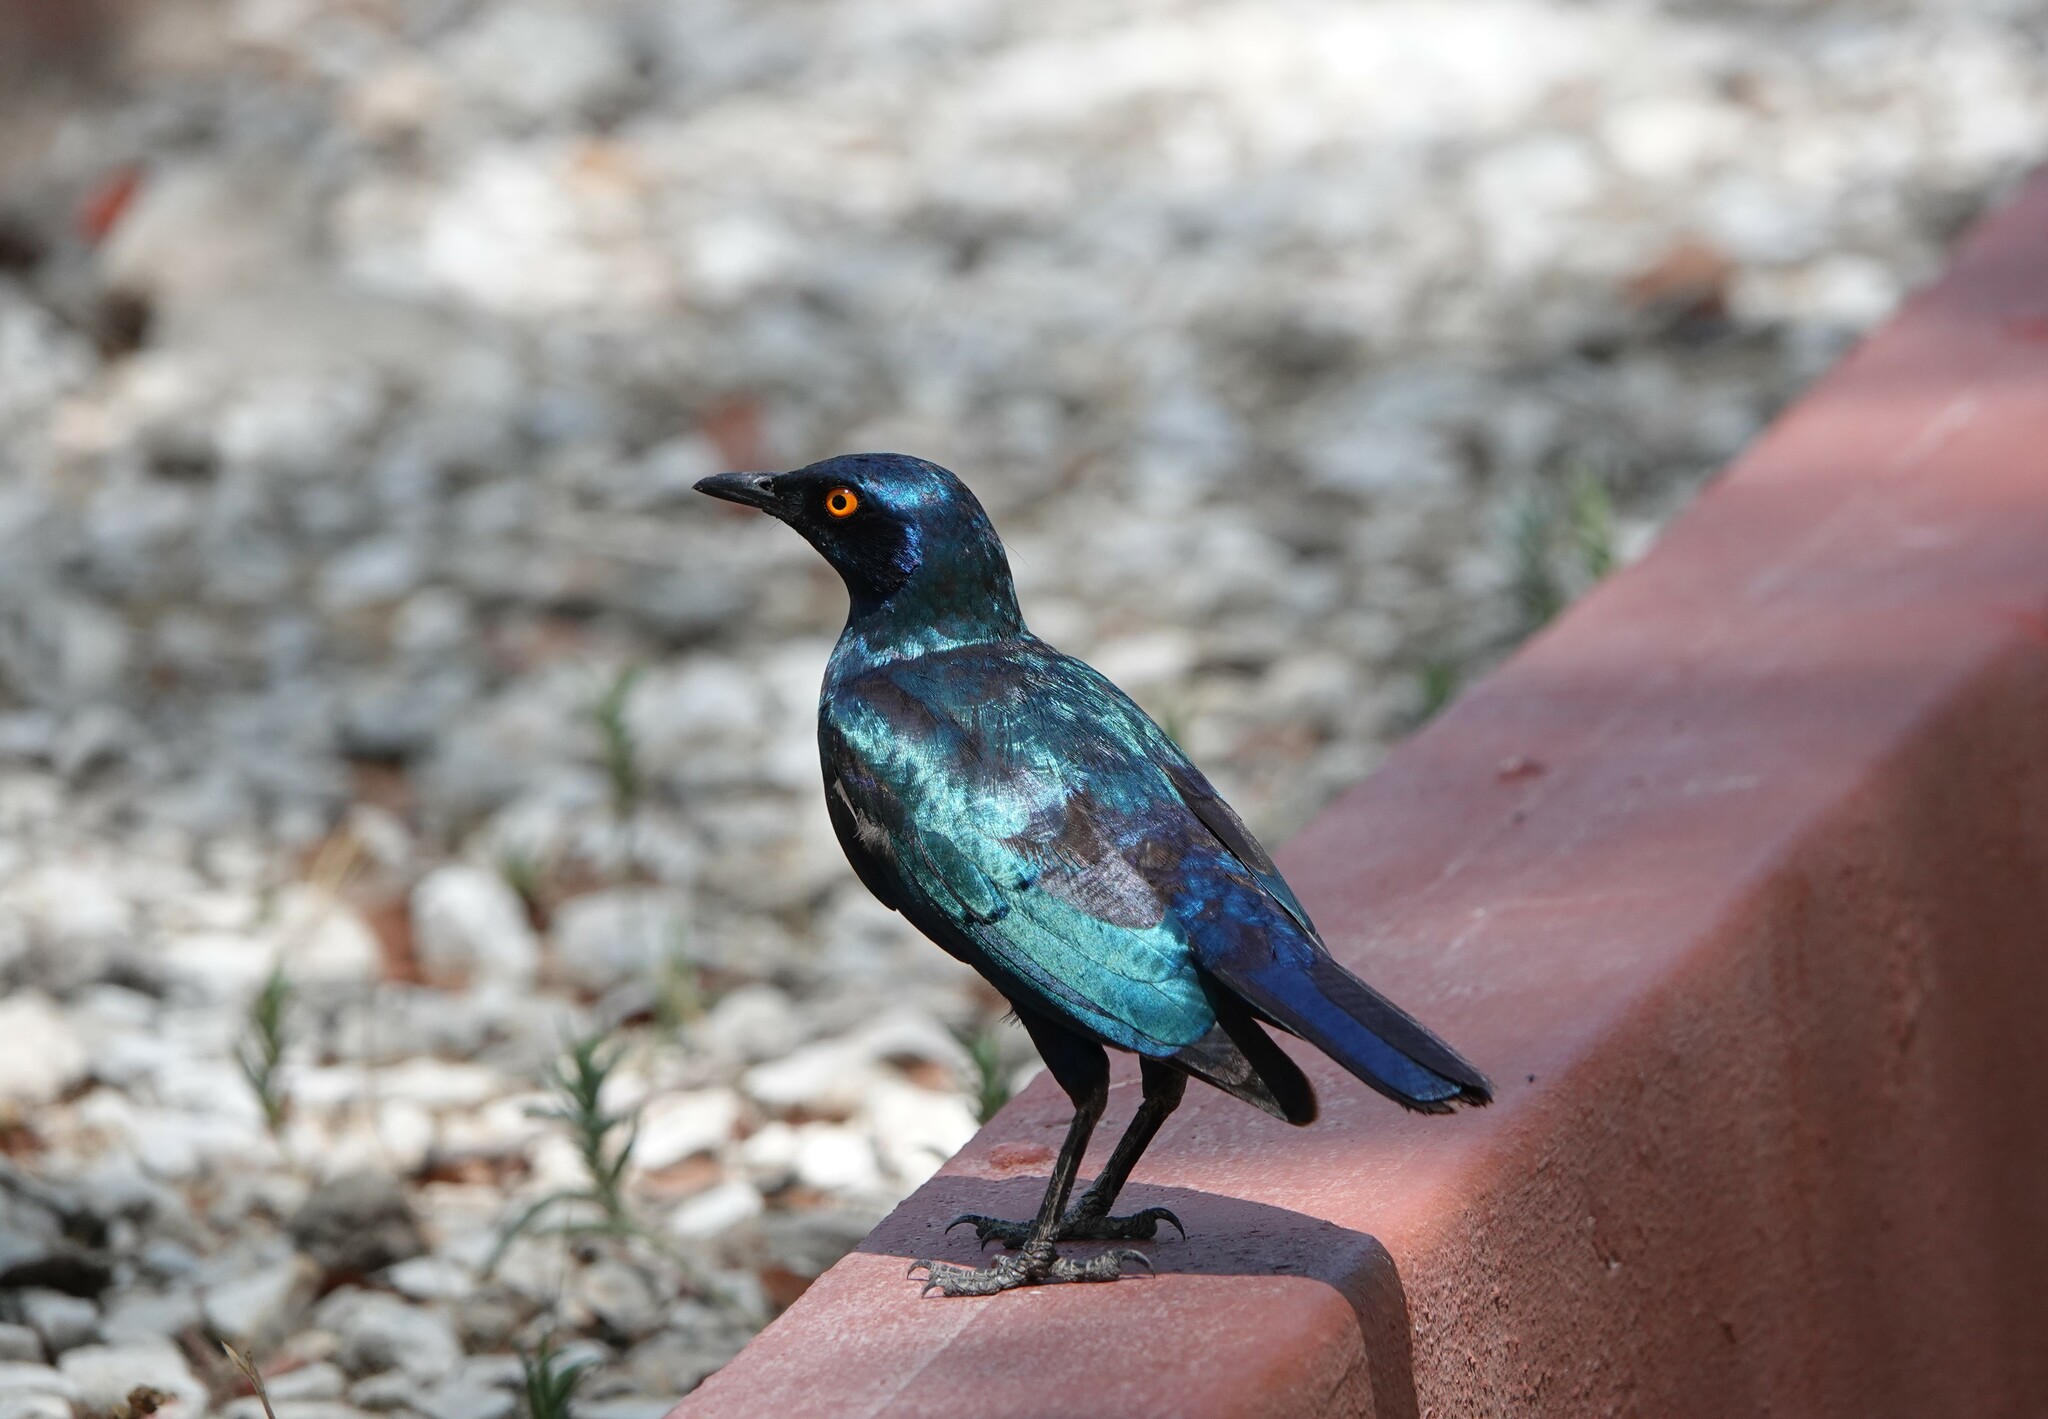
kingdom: Animalia
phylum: Chordata
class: Aves
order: Passeriformes
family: Sturnidae
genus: Lamprotornis
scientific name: Lamprotornis nitens
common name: Cape starling
